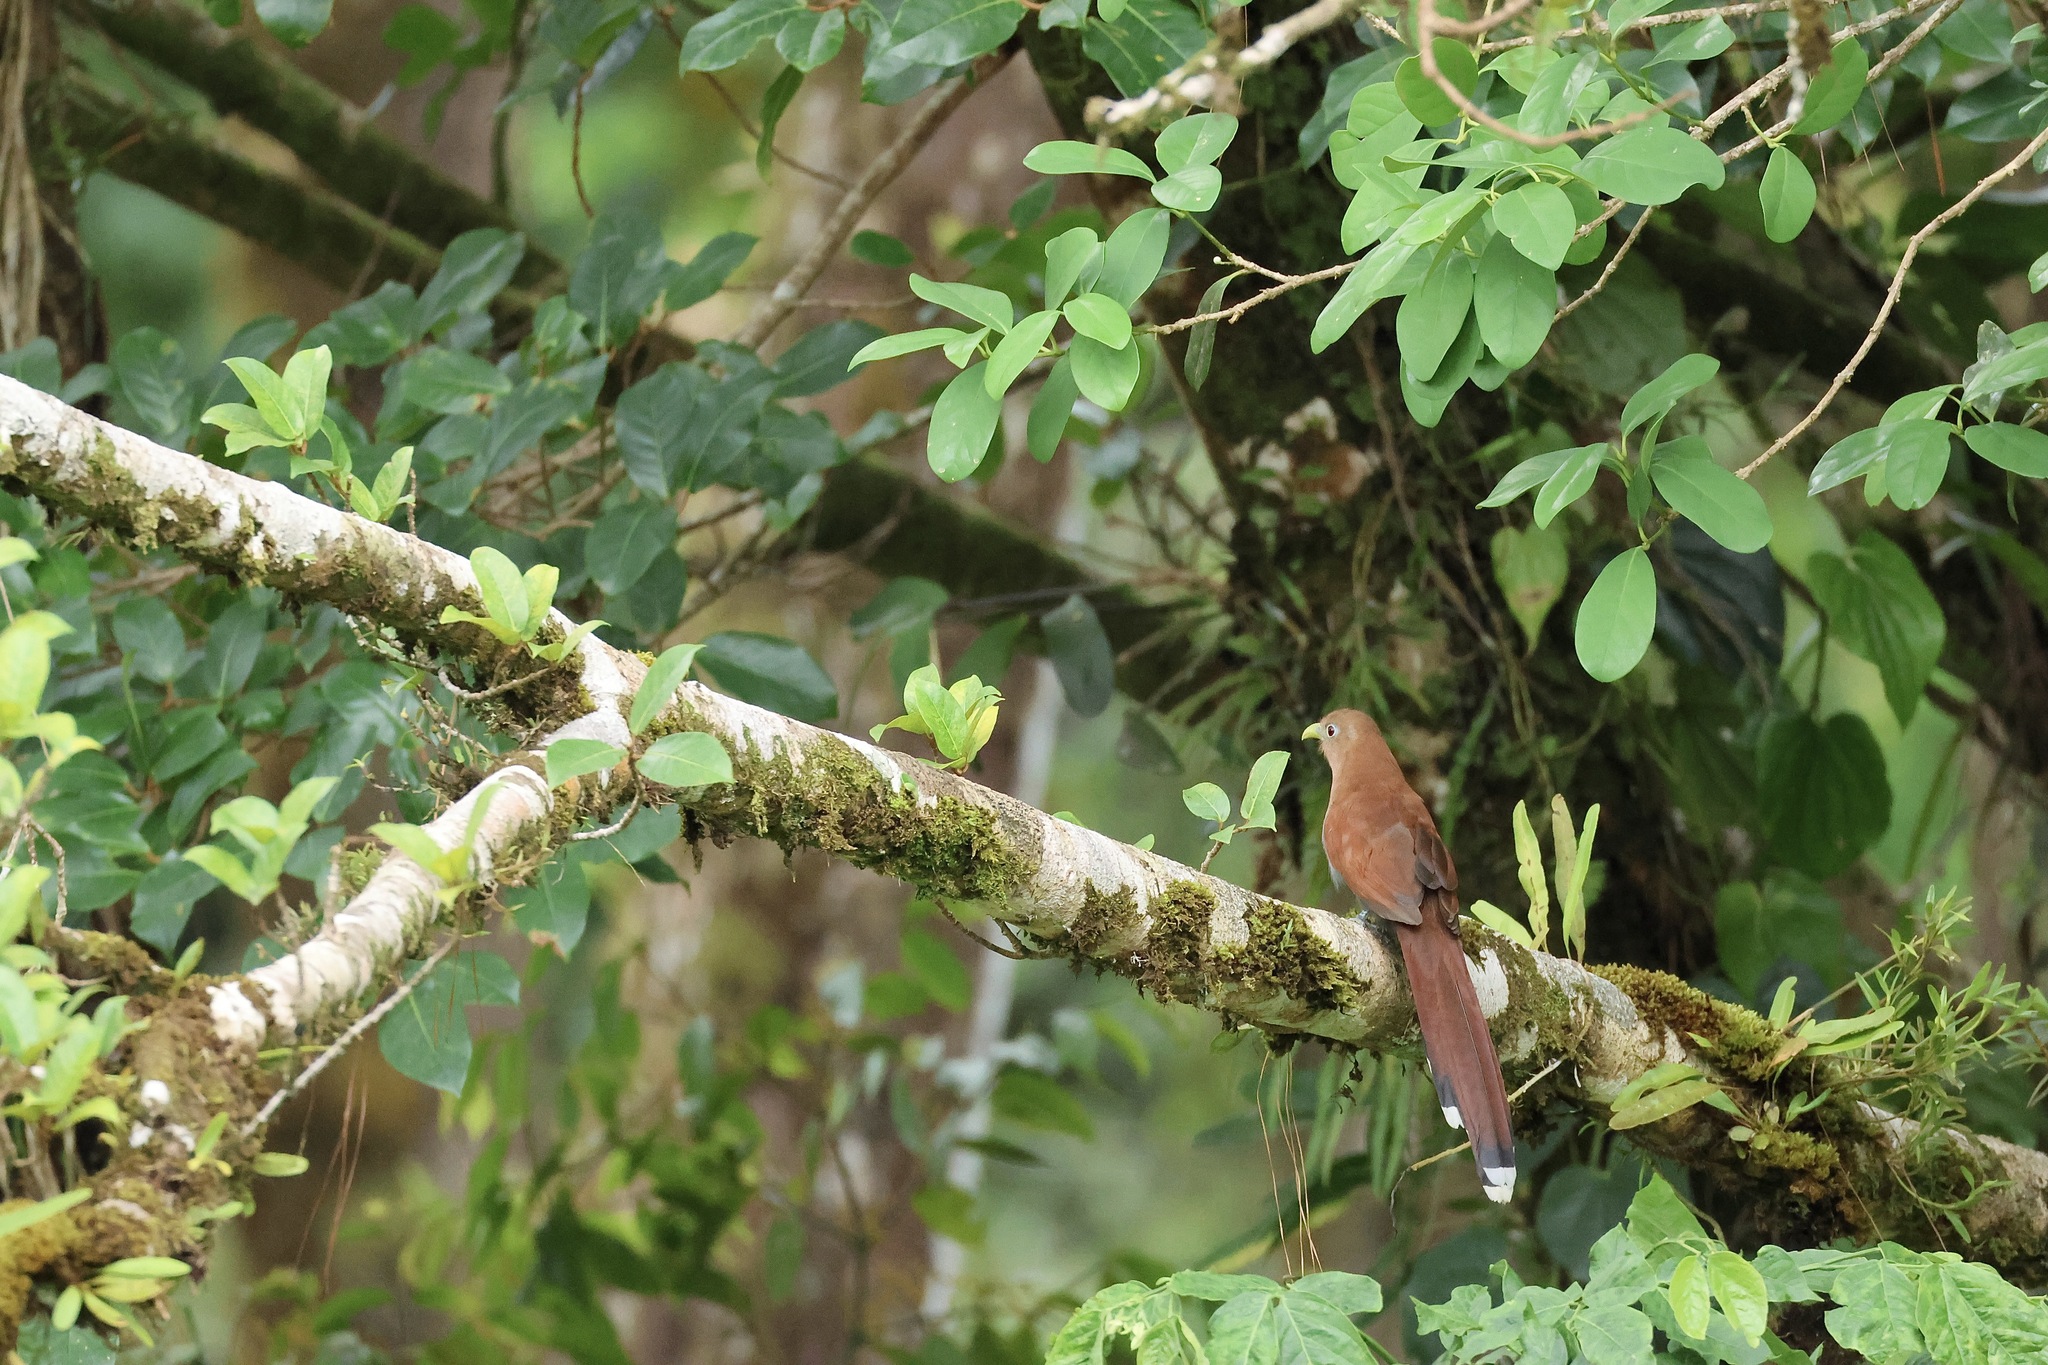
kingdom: Animalia
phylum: Chordata
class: Aves
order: Cuculiformes
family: Cuculidae
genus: Piaya
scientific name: Piaya cayana
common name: Squirrel cuckoo
